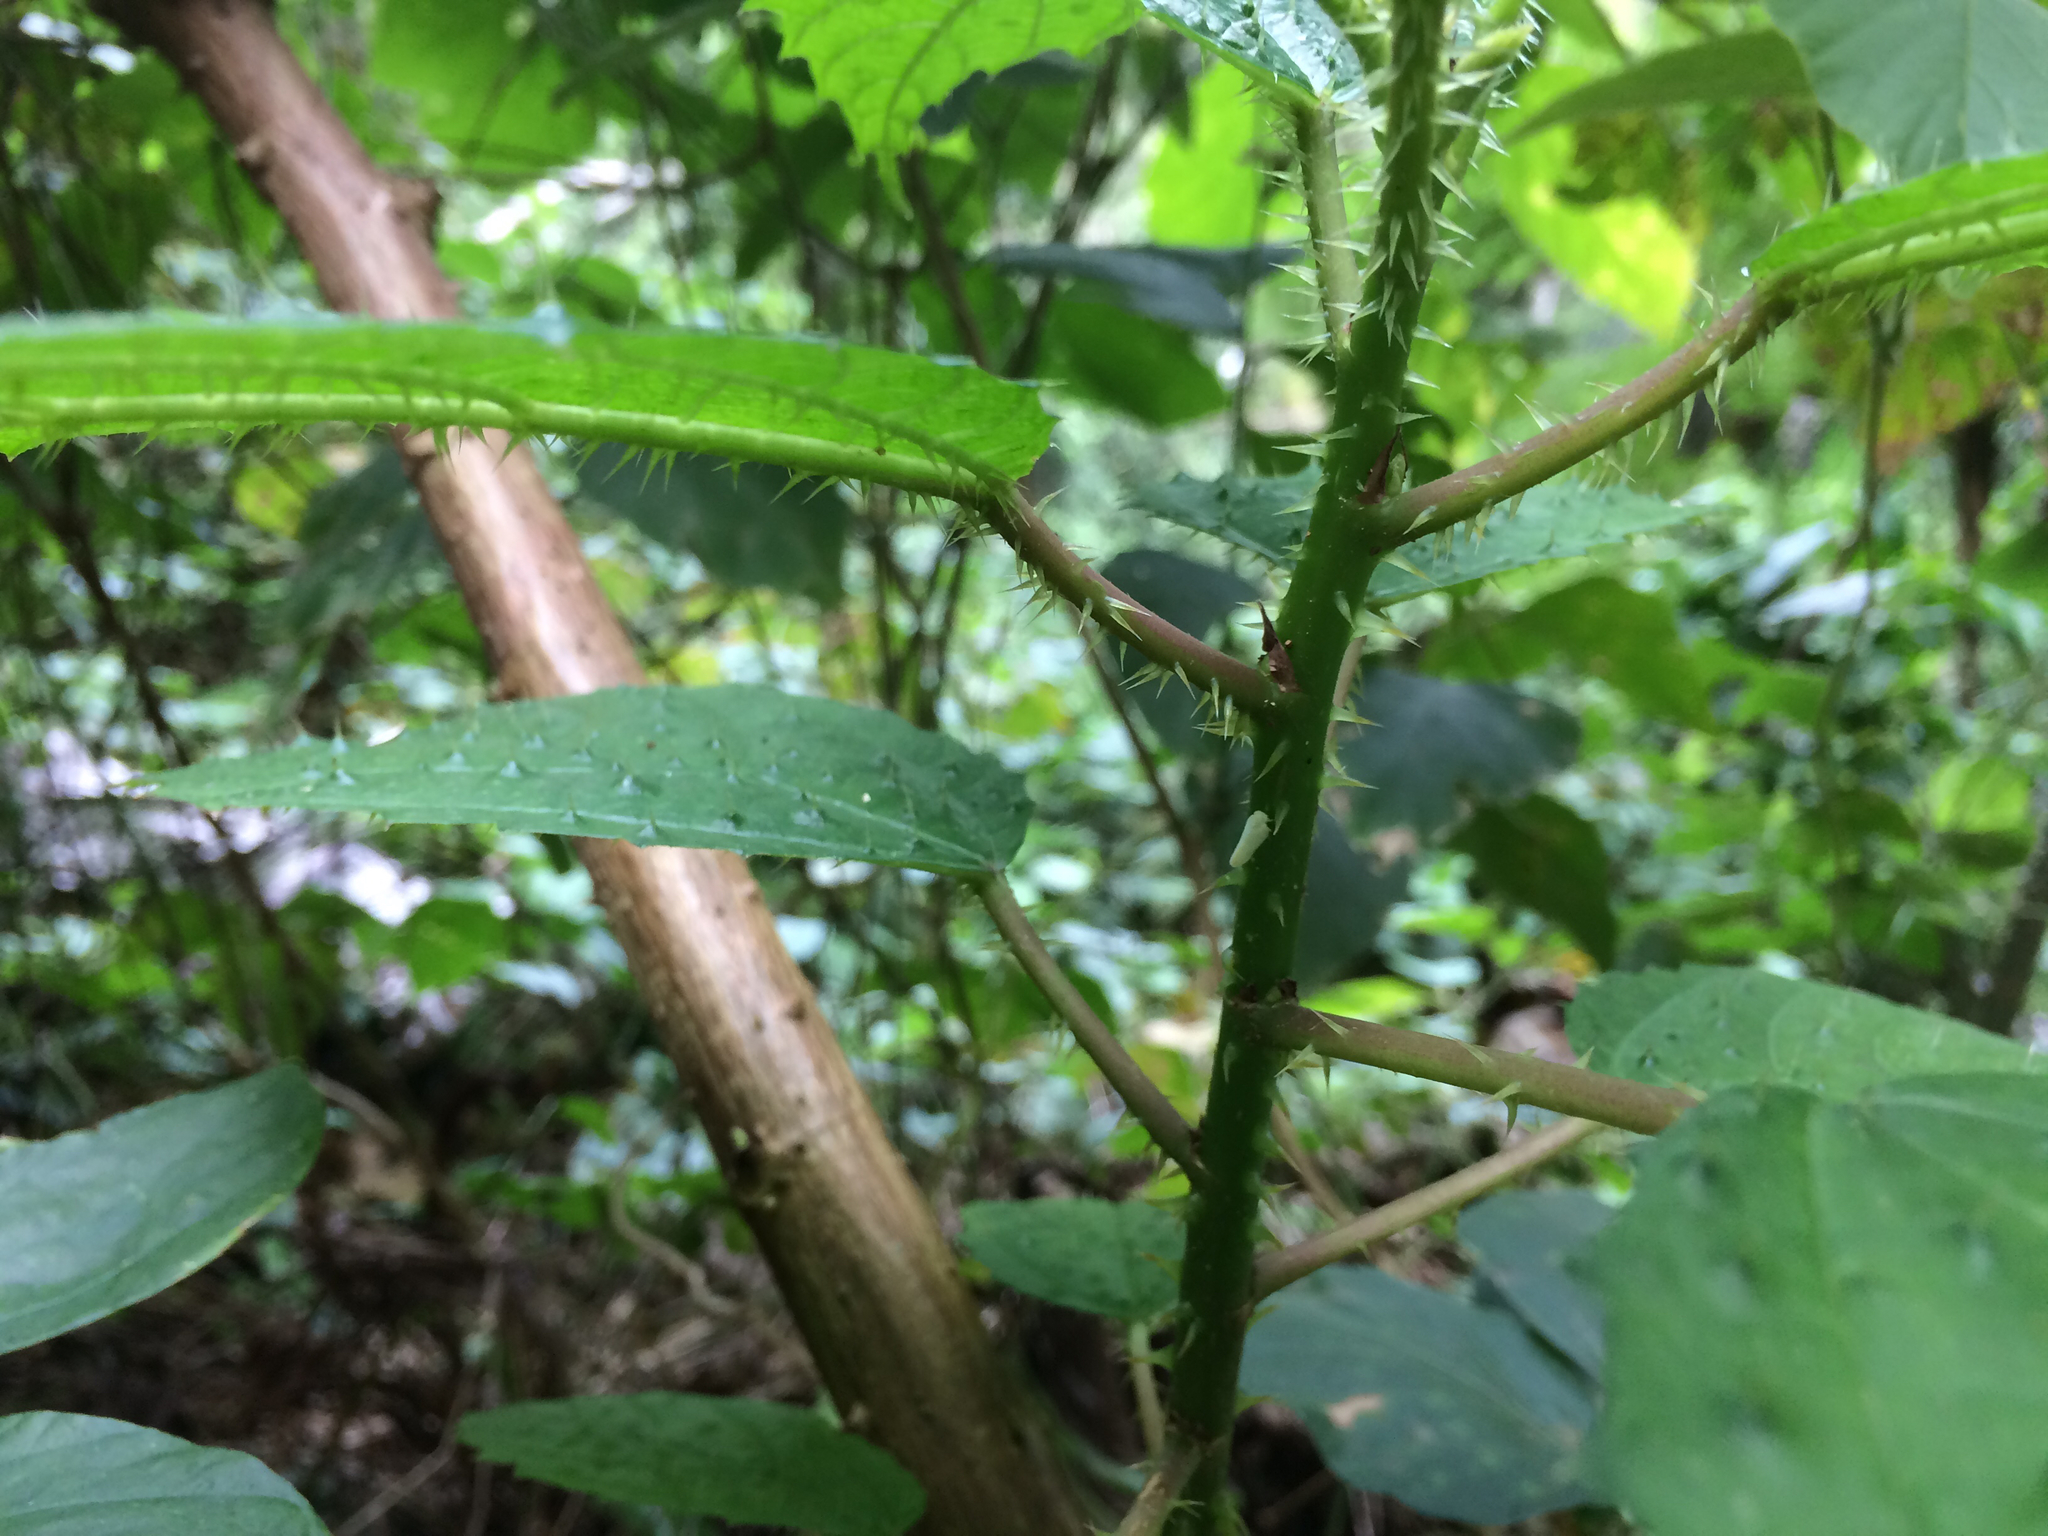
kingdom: Plantae
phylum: Tracheophyta
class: Magnoliopsida
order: Rosales
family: Urticaceae
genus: Urera
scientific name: Urera baccifera
